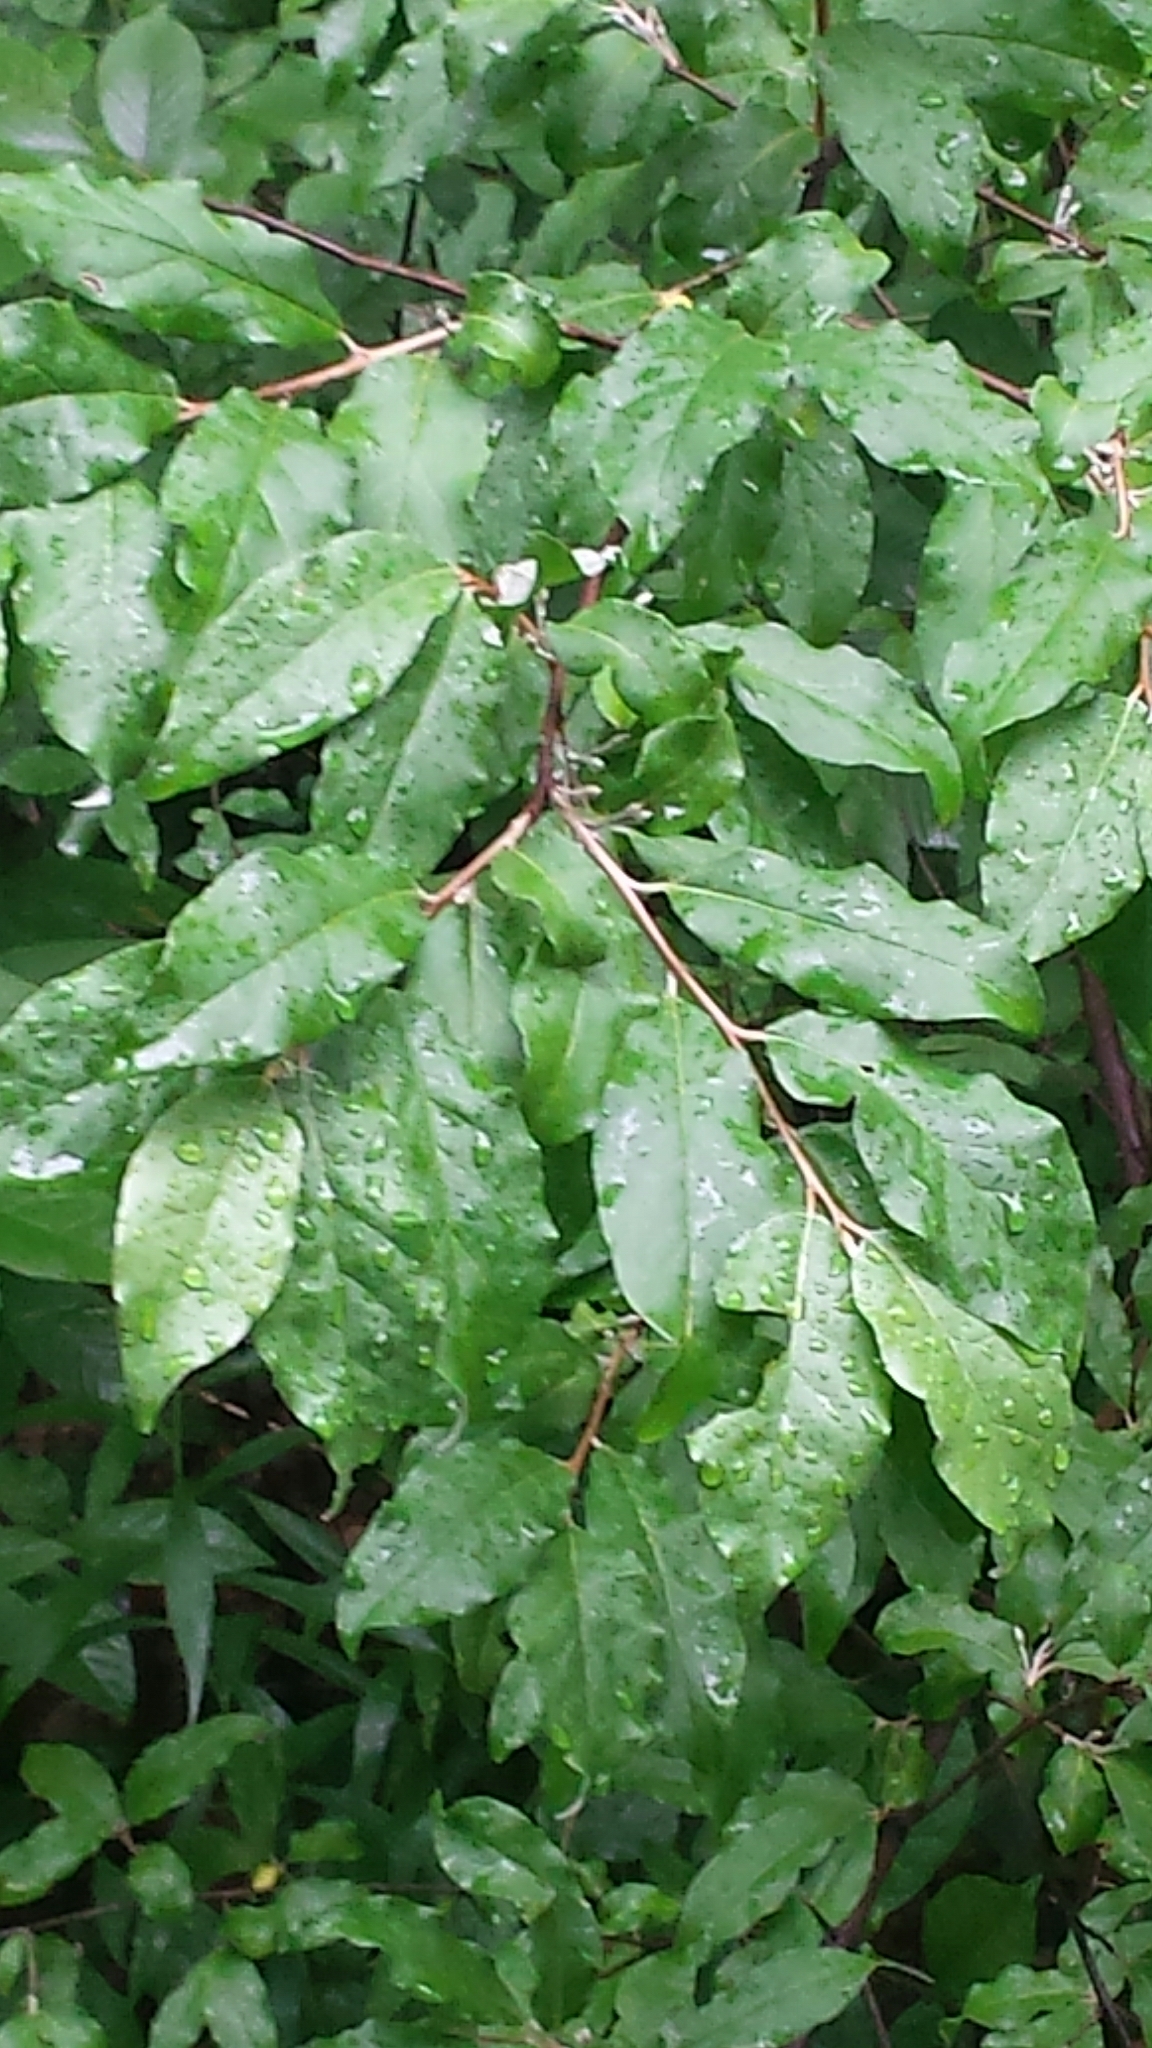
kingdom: Plantae
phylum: Tracheophyta
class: Magnoliopsida
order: Rosales
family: Elaeagnaceae
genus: Elaeagnus
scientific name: Elaeagnus umbellata
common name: Autumn olive
